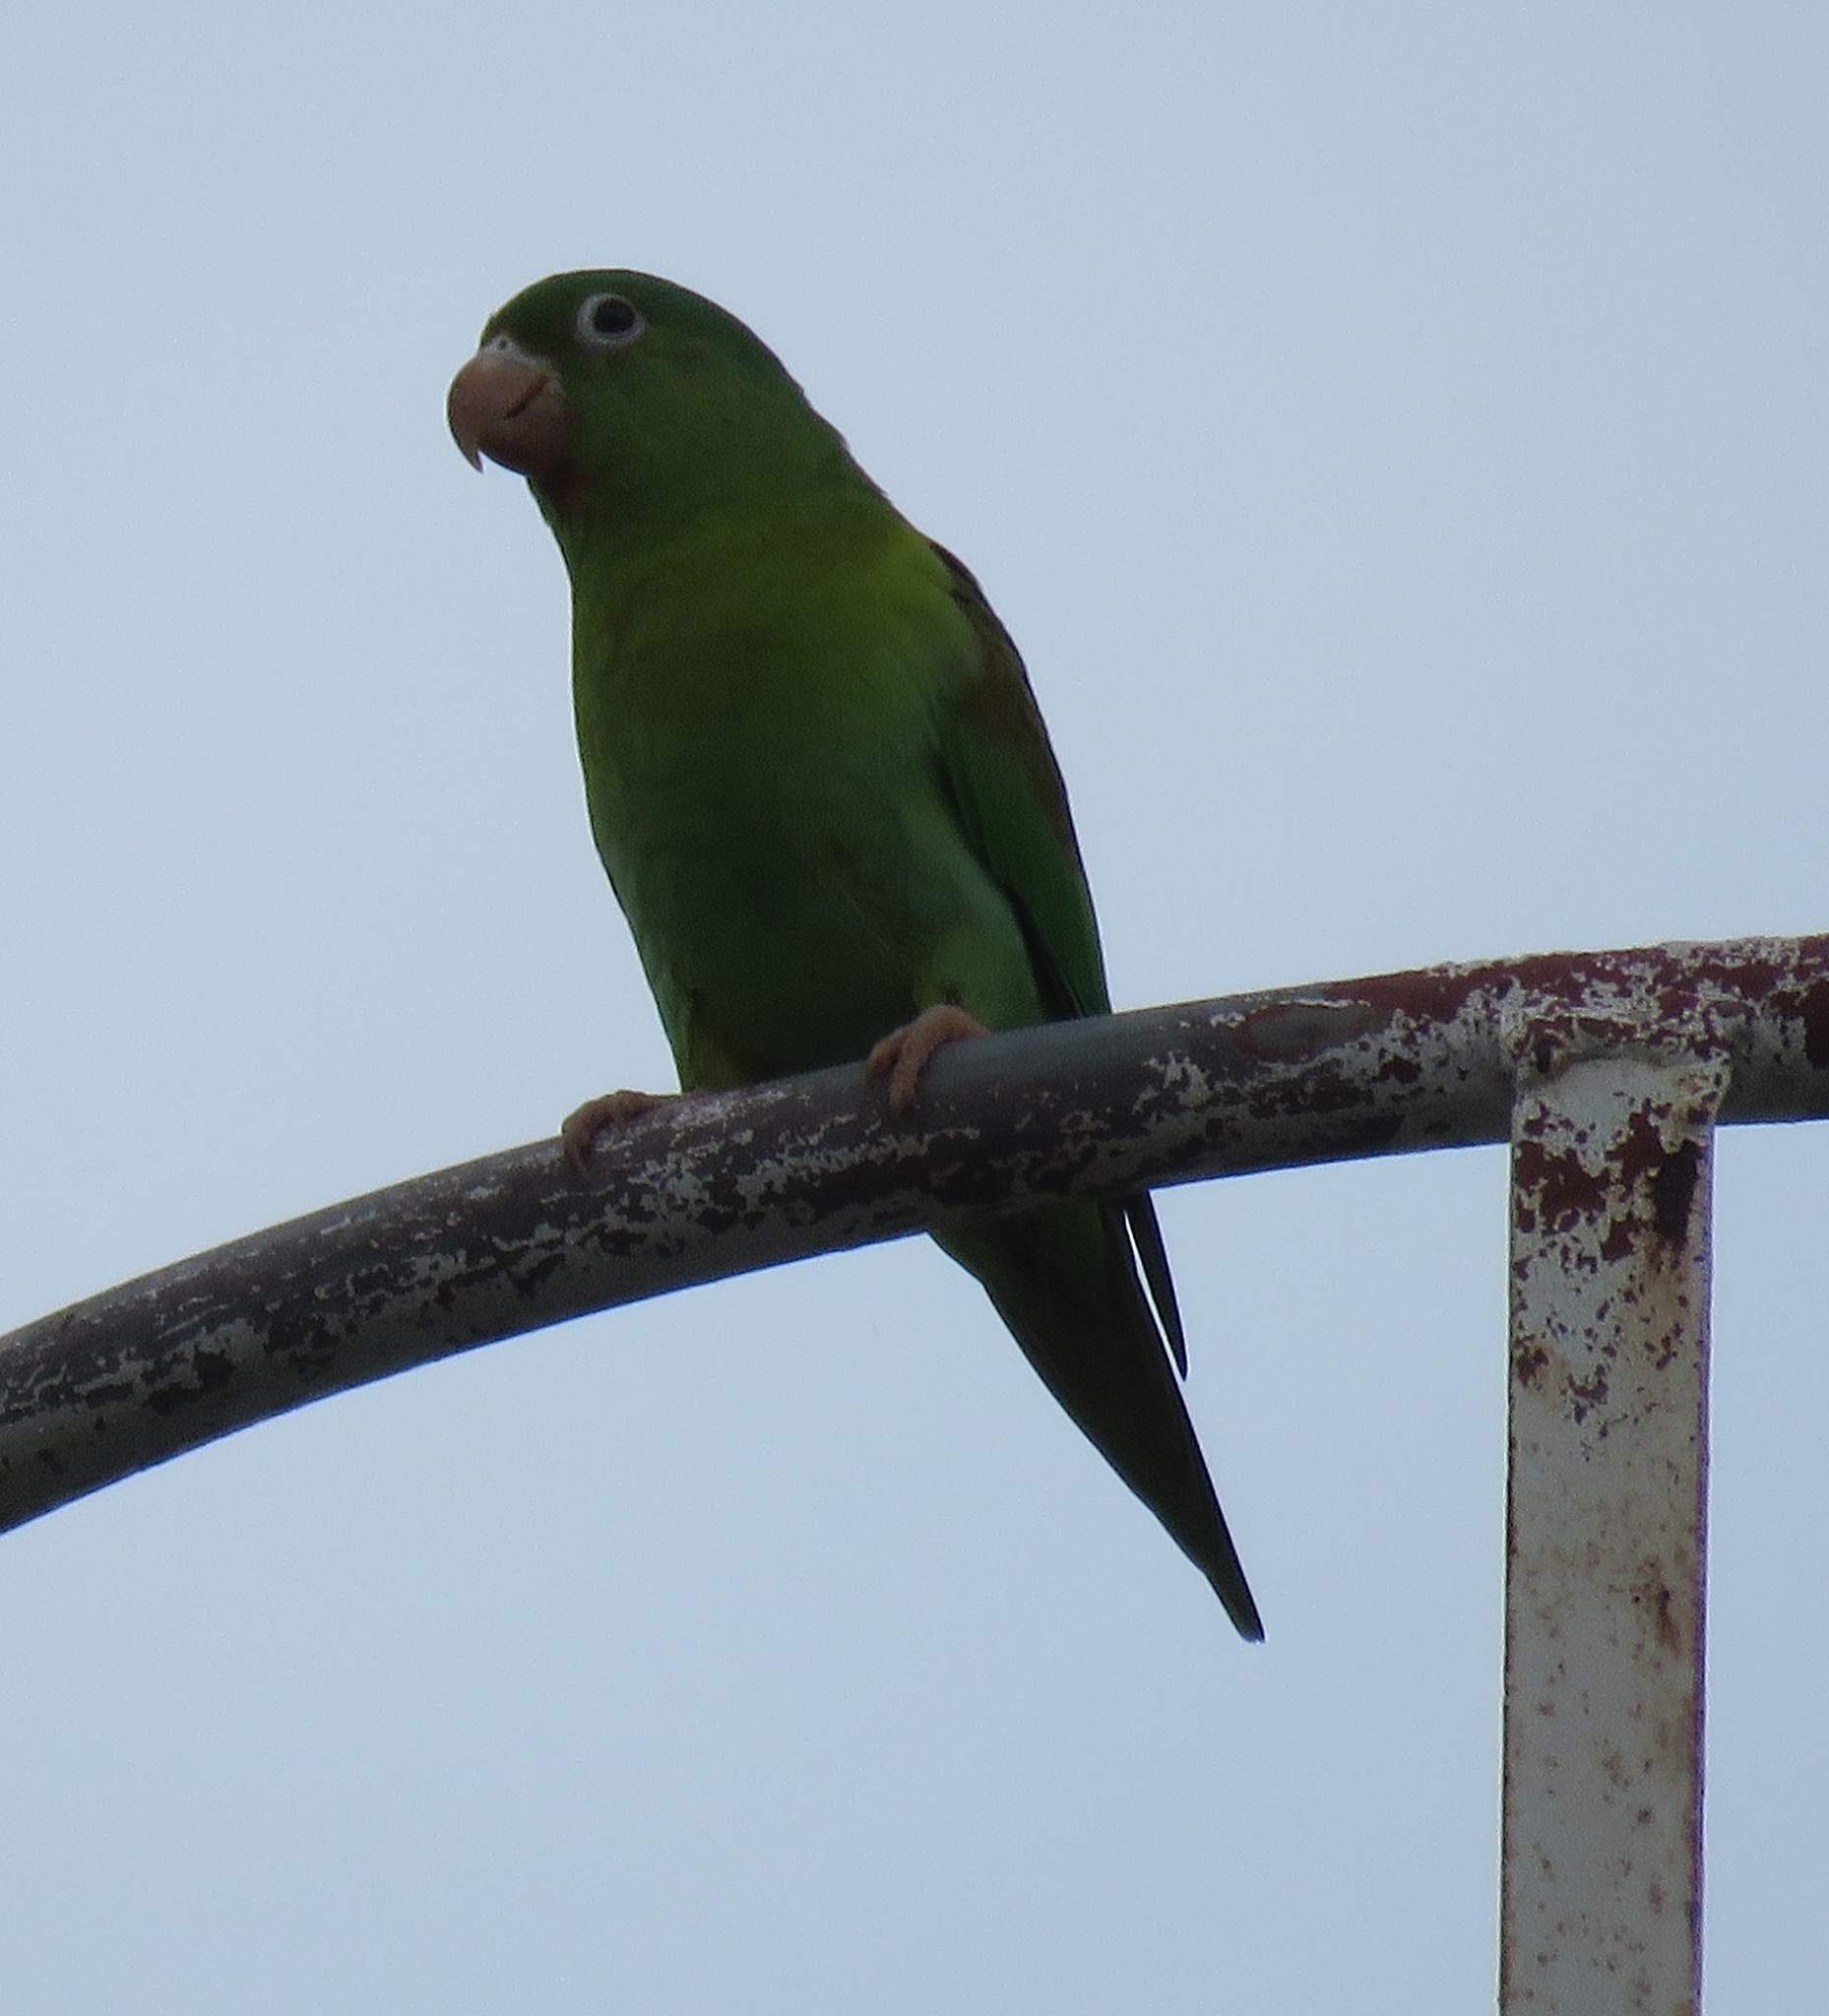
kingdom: Animalia
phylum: Chordata
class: Aves
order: Psittaciformes
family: Psittacidae
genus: Brotogeris
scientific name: Brotogeris jugularis
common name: Orange-chinned parakeet
